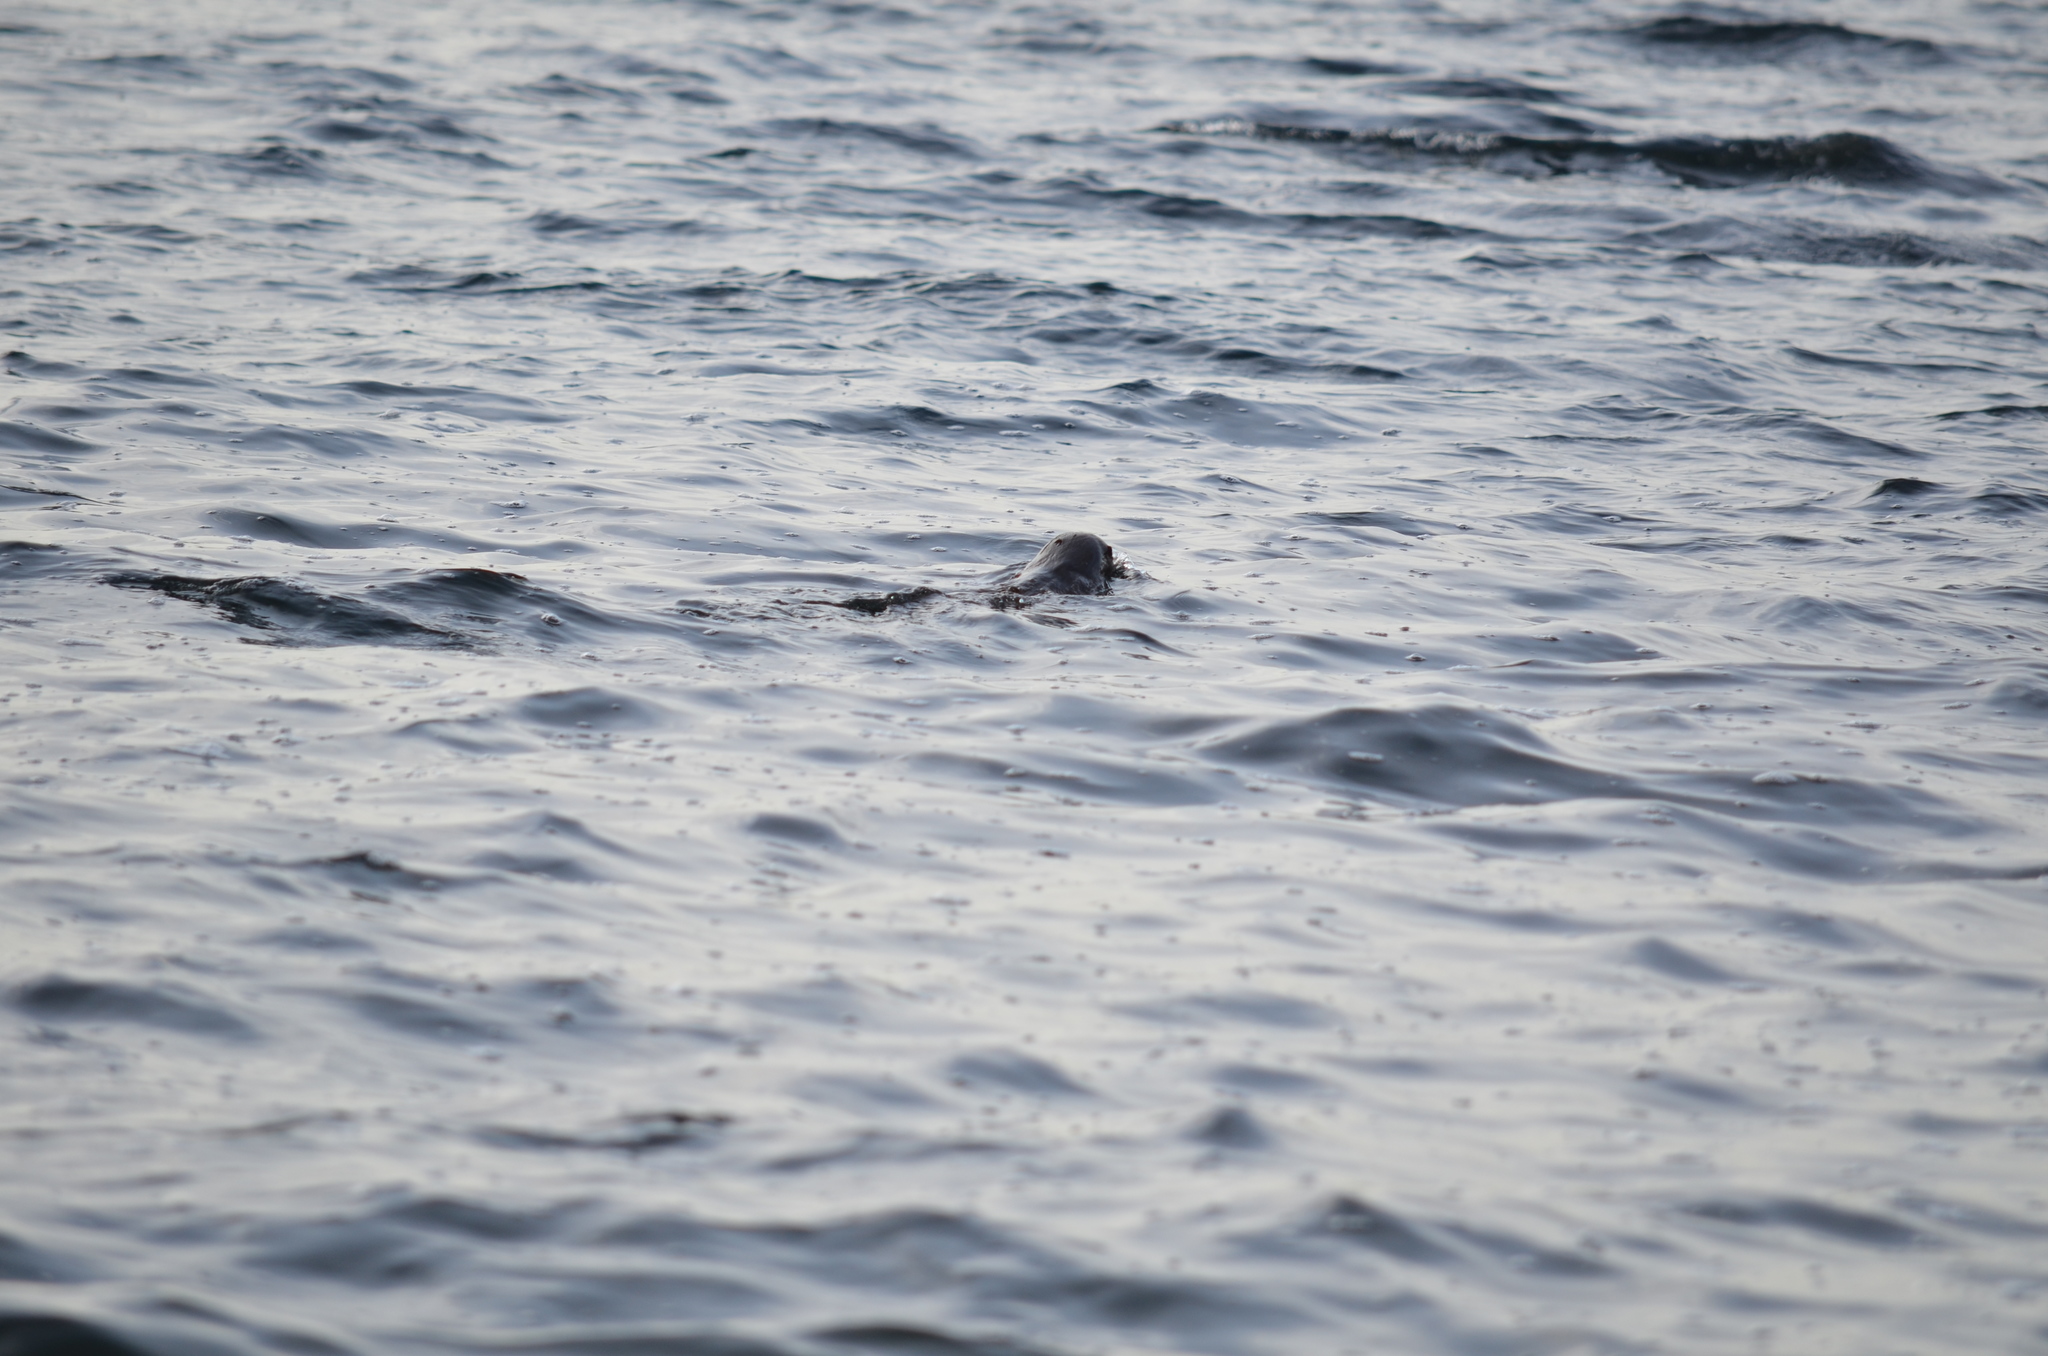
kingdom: Animalia
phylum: Chordata
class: Mammalia
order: Carnivora
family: Mustelidae
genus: Lontra
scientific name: Lontra canadensis
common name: North american river otter
